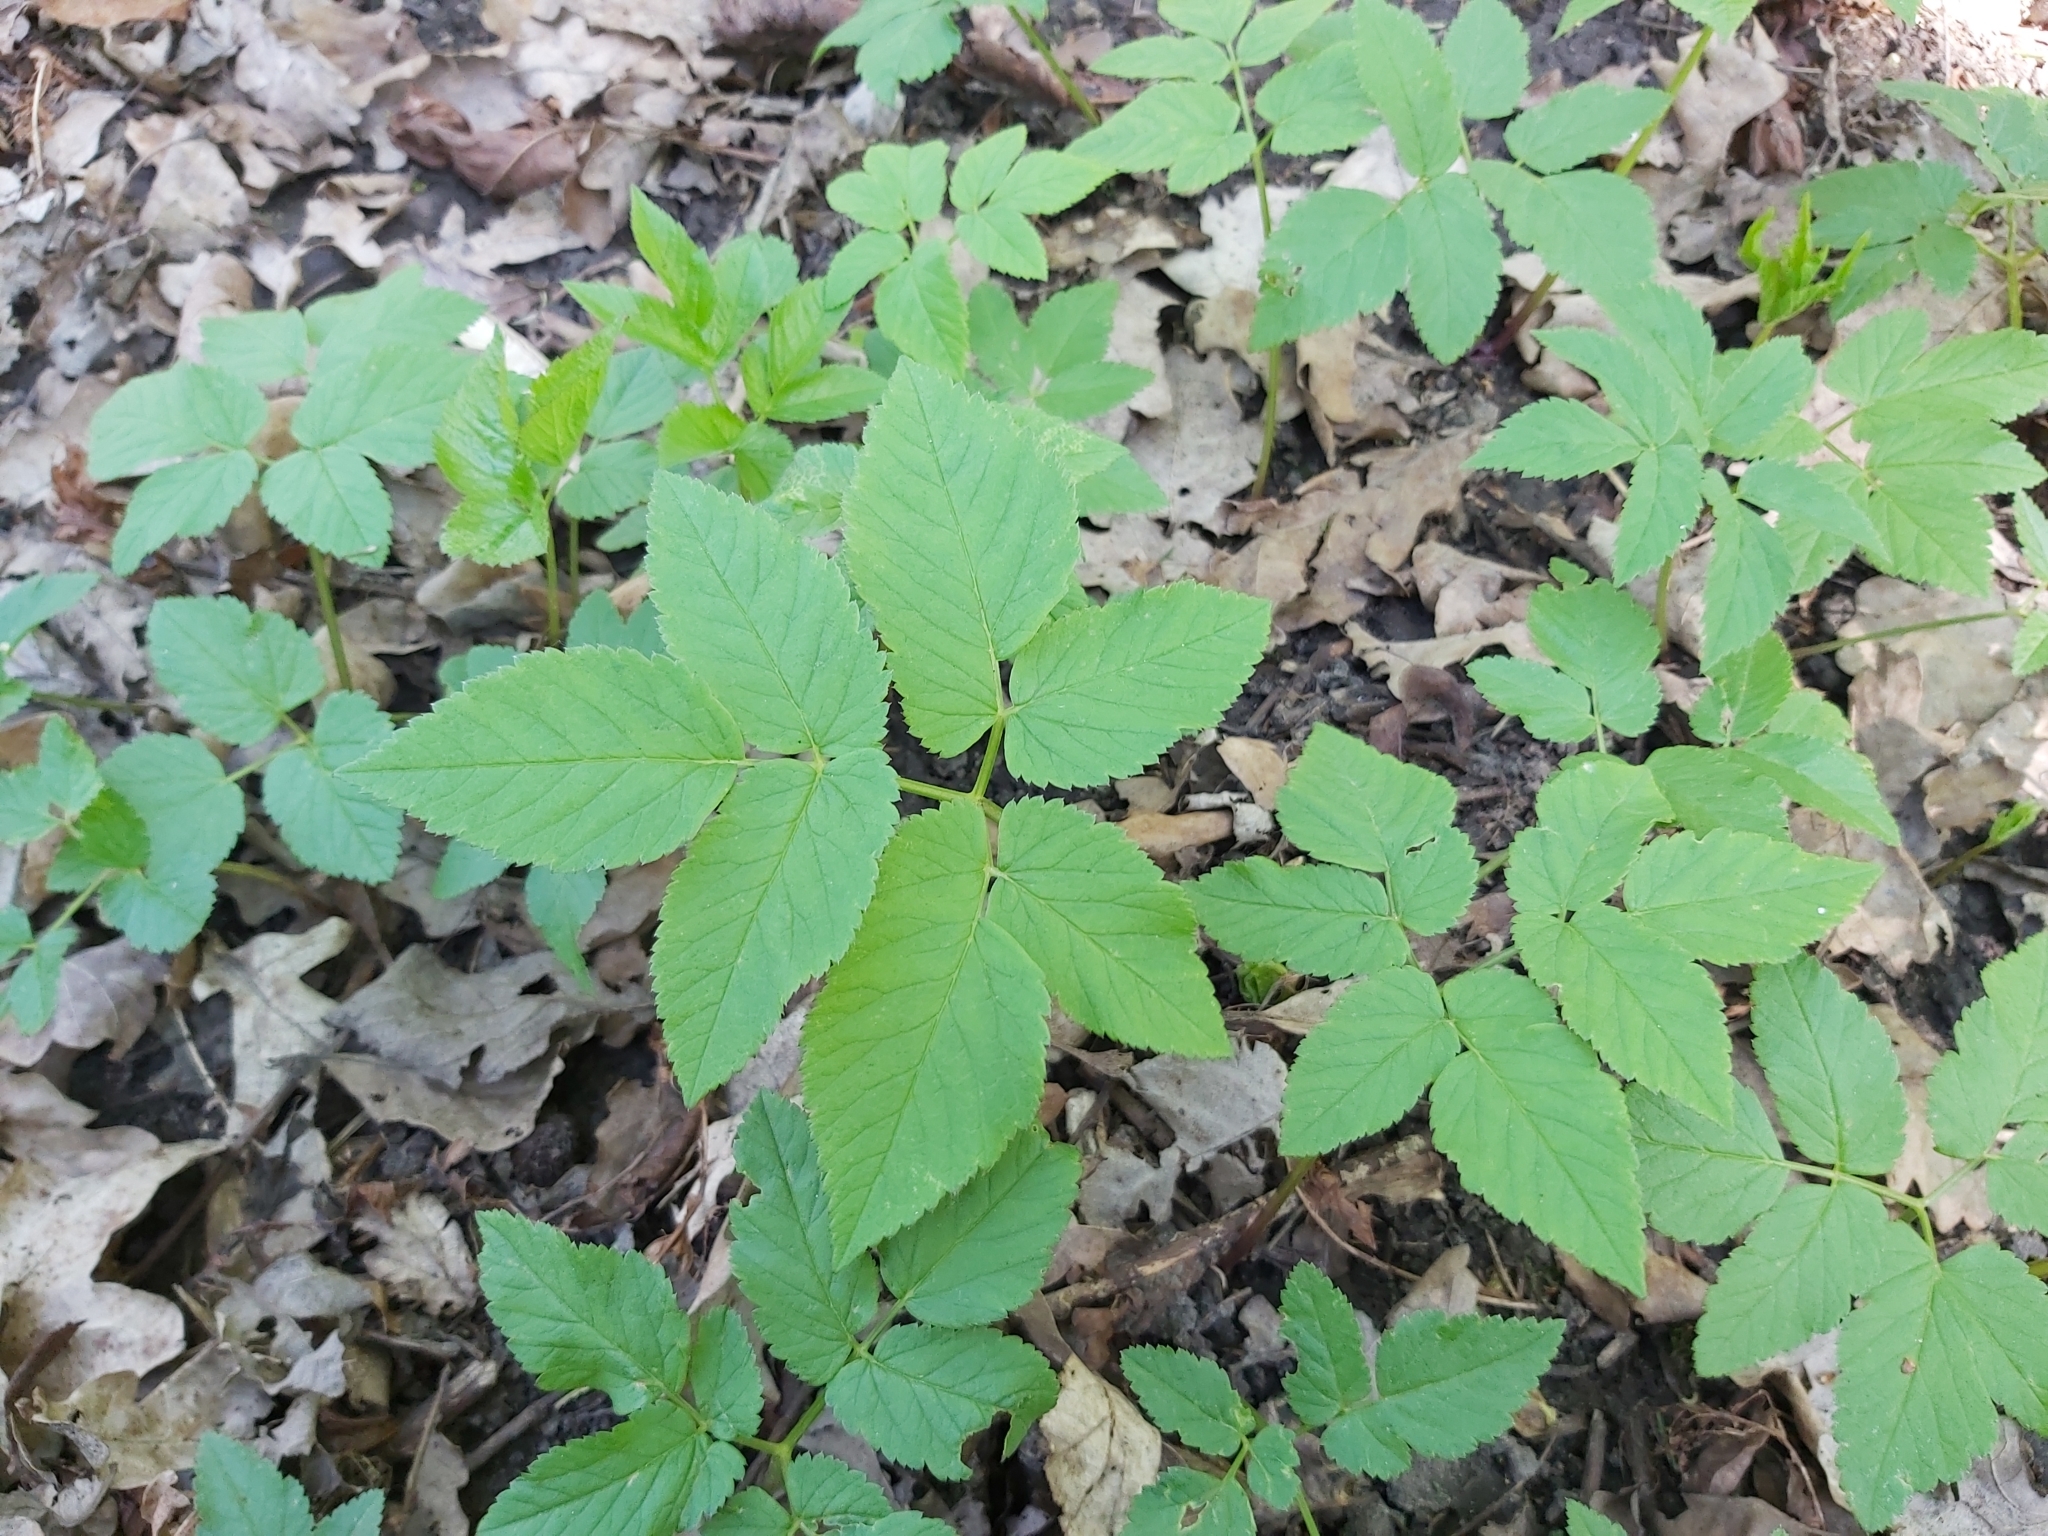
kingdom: Plantae
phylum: Tracheophyta
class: Magnoliopsida
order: Apiales
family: Apiaceae
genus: Aegopodium
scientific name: Aegopodium podagraria
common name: Ground-elder
